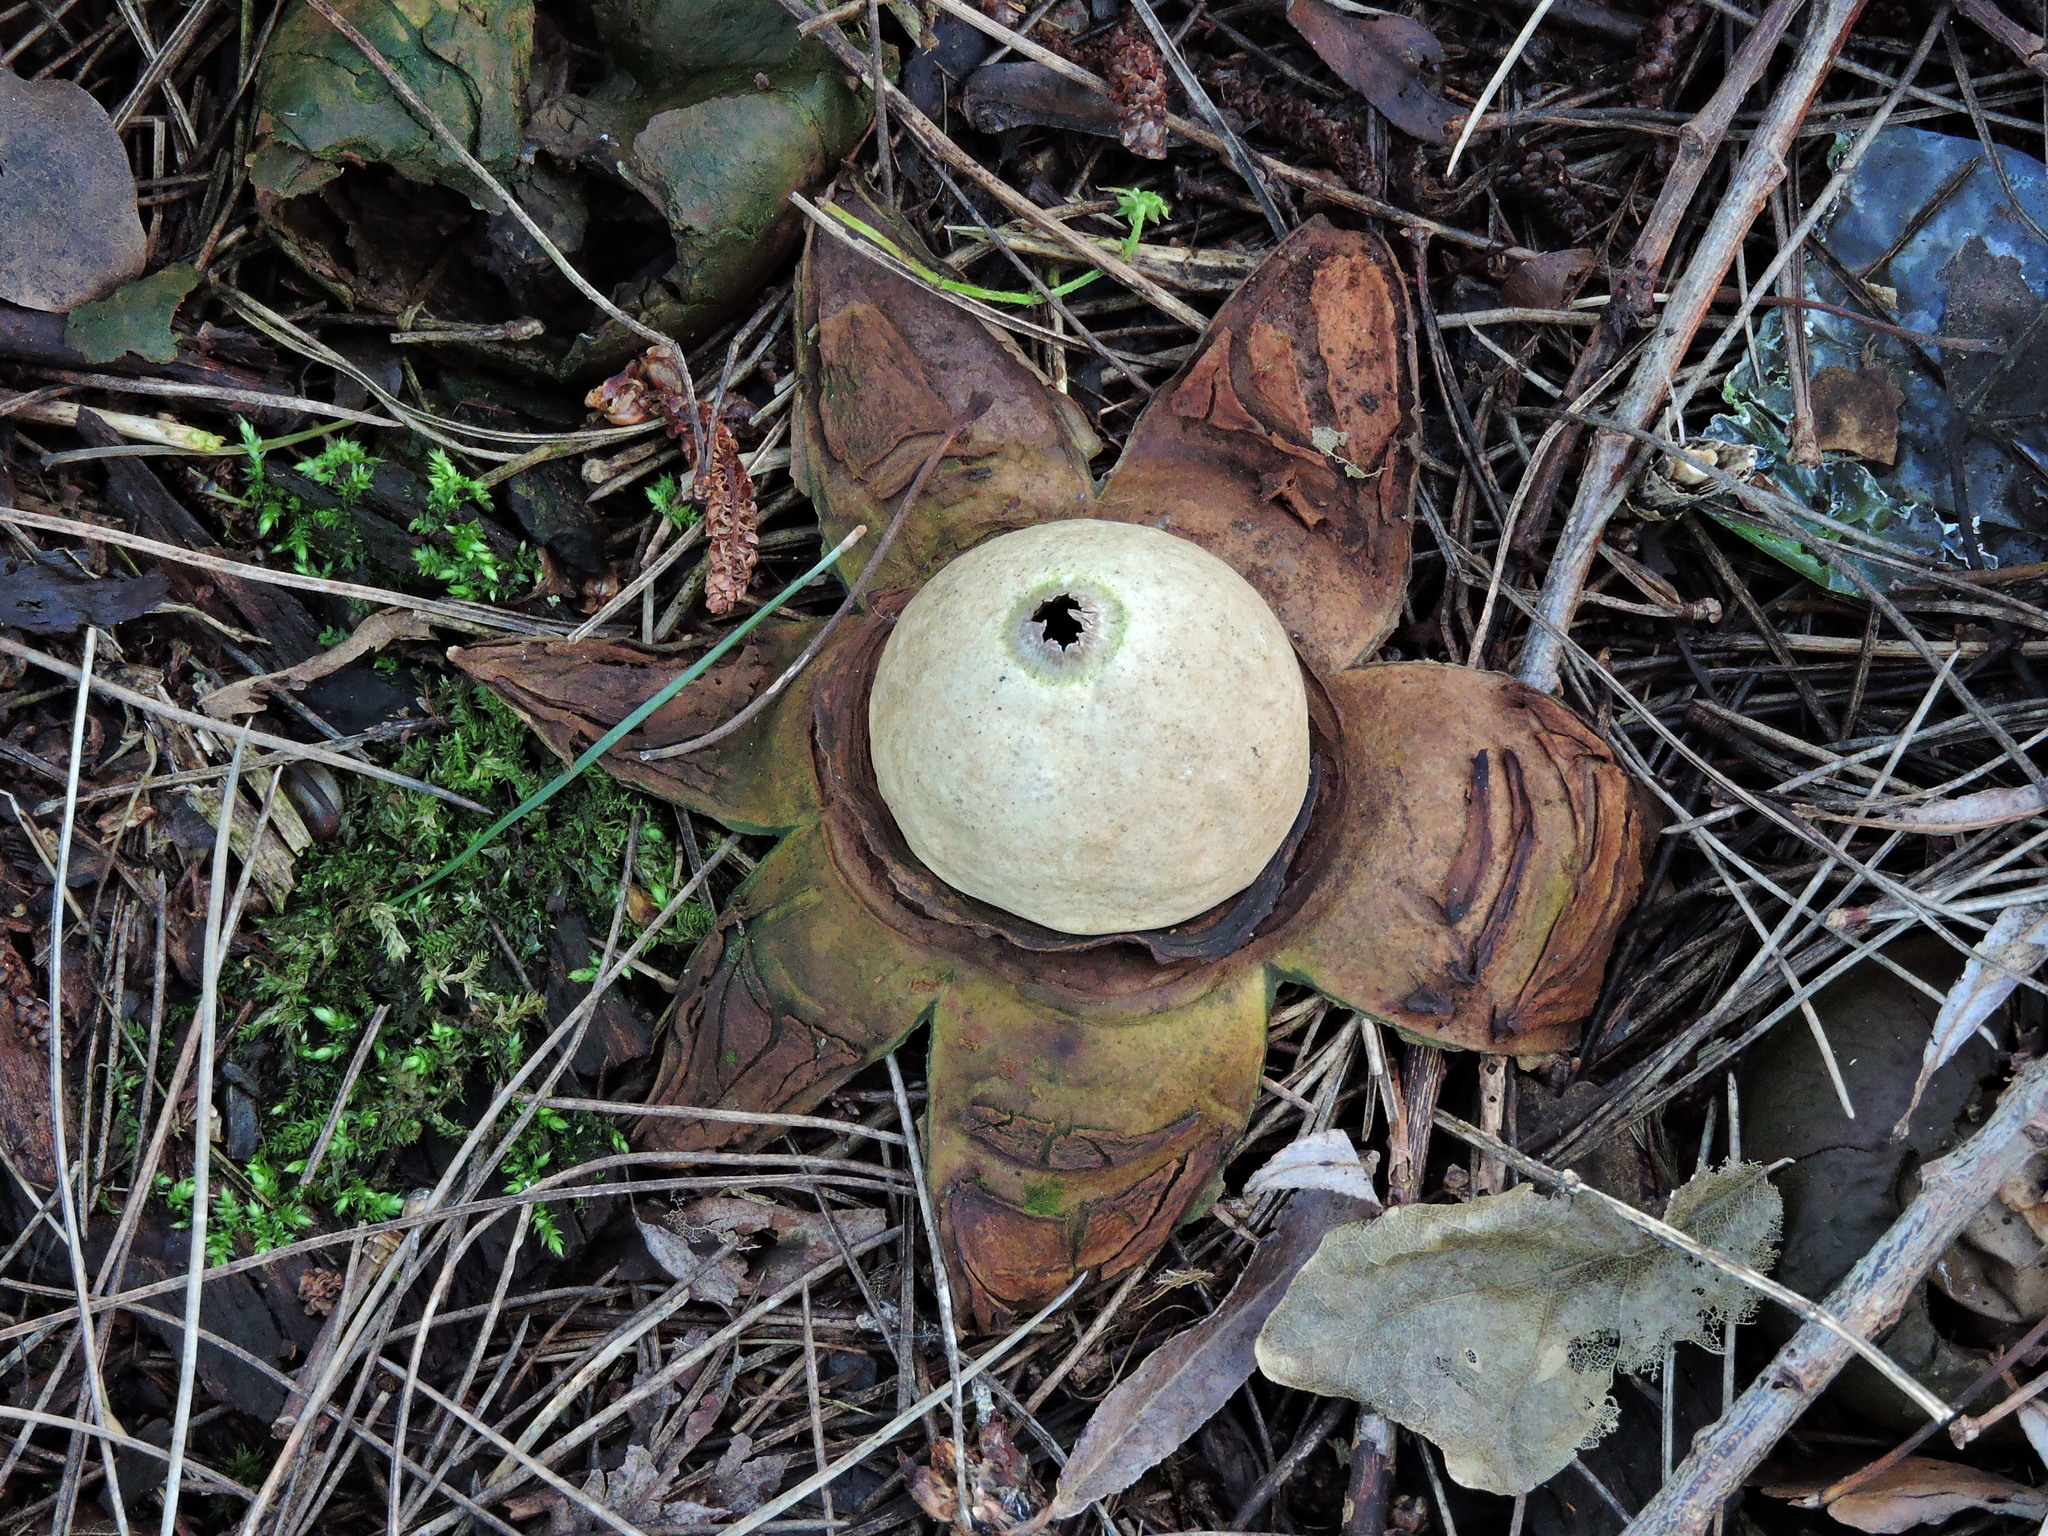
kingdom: Fungi
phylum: Basidiomycota
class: Agaricomycetes
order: Geastrales
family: Geastraceae
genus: Geastrum
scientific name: Geastrum triplex
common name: Collared earthstar
